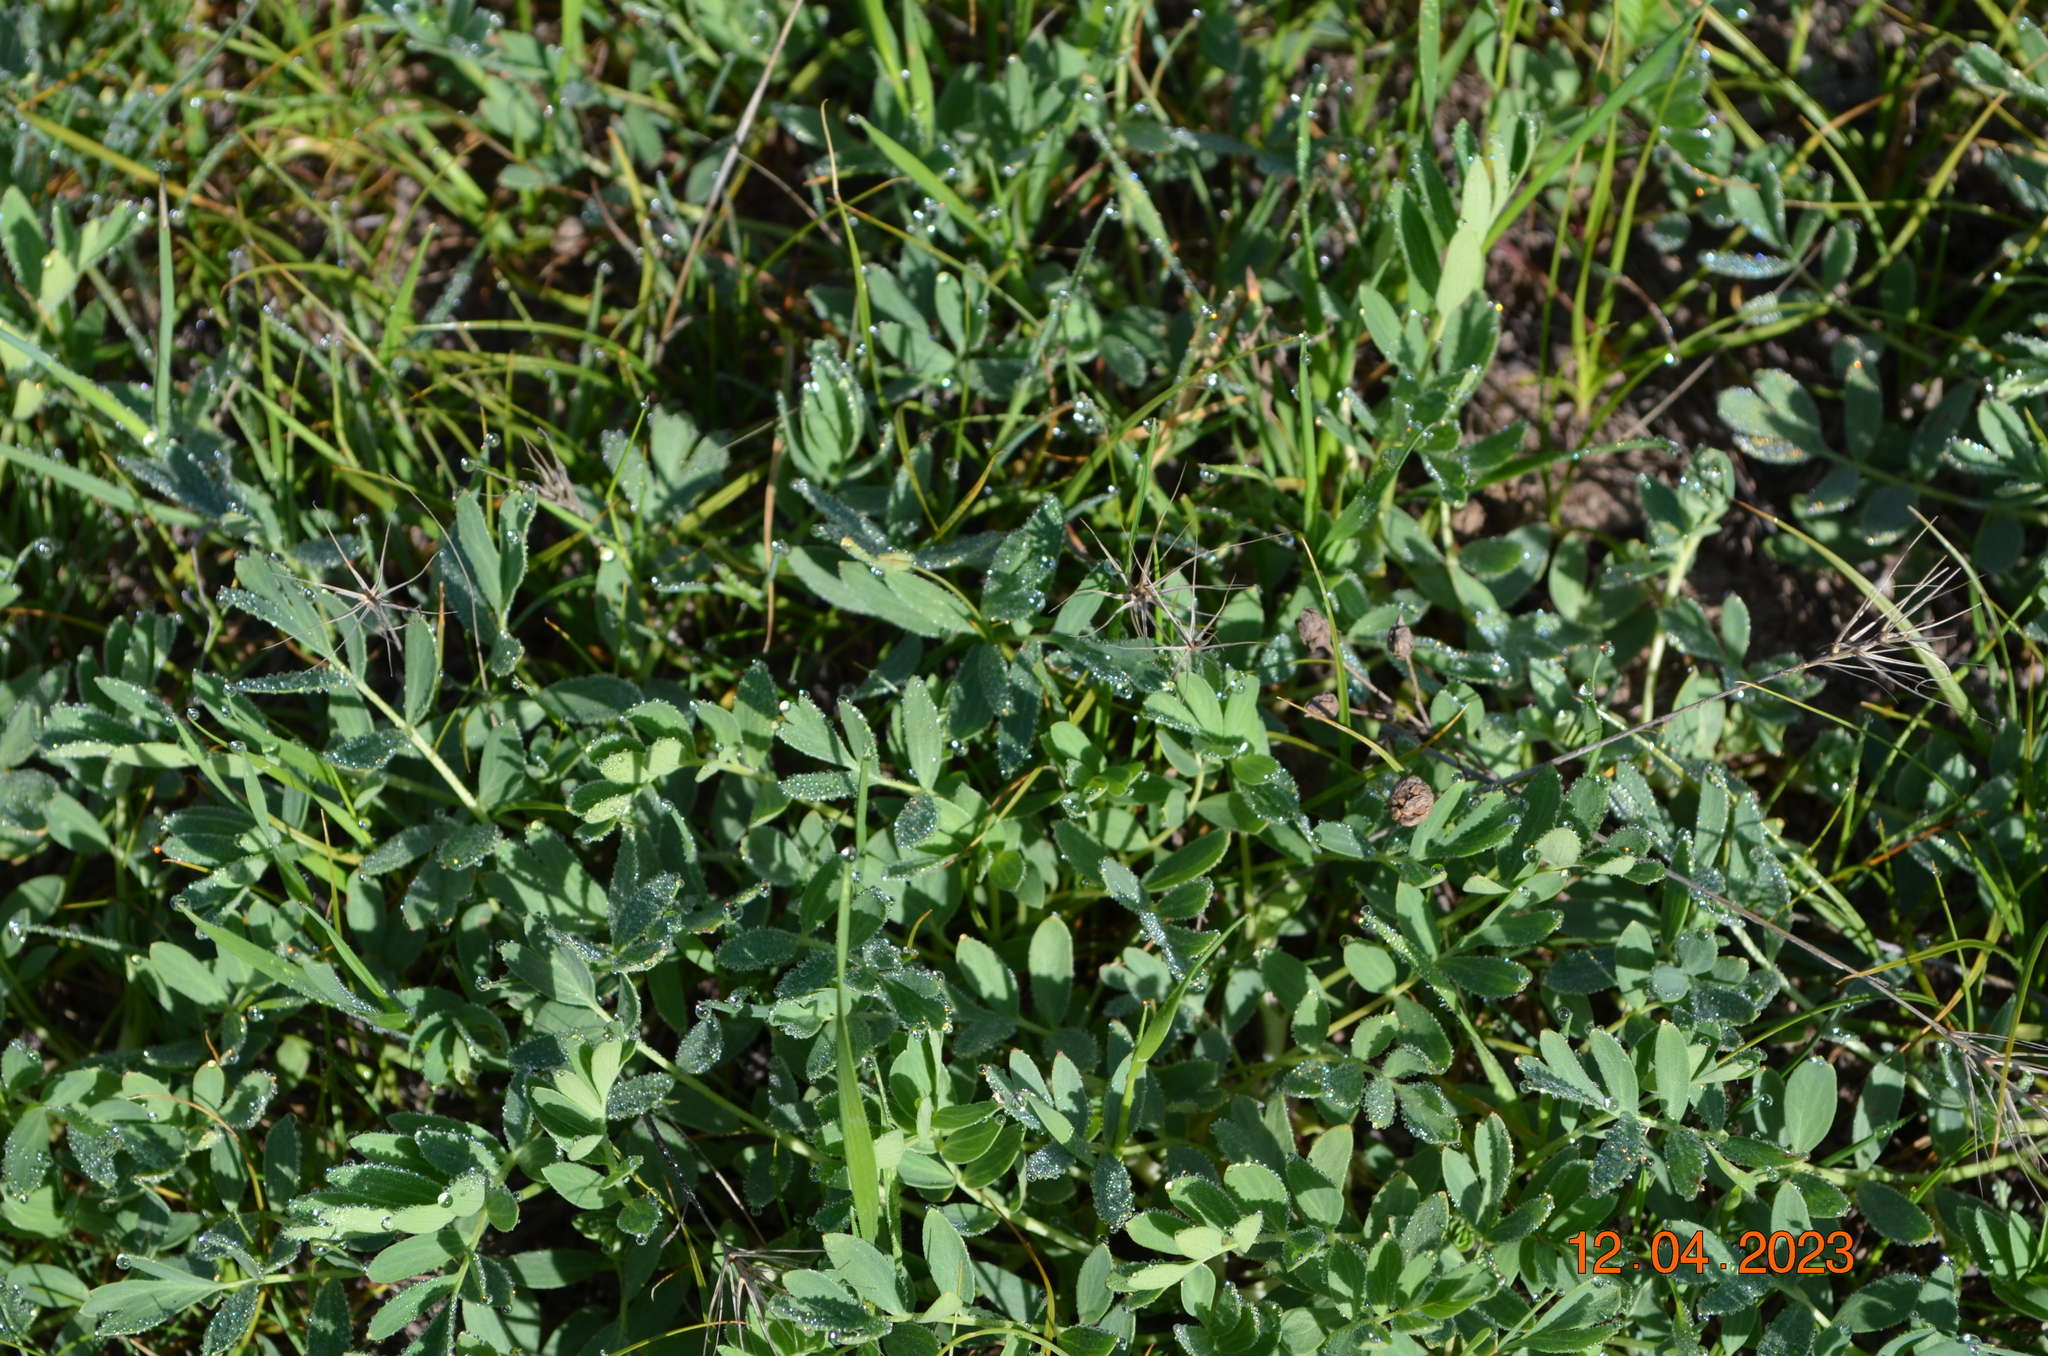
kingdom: Plantae
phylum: Tracheophyta
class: Magnoliopsida
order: Rosales
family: Rosaceae
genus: Sibbaldianthe
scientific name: Sibbaldianthe bifurca
